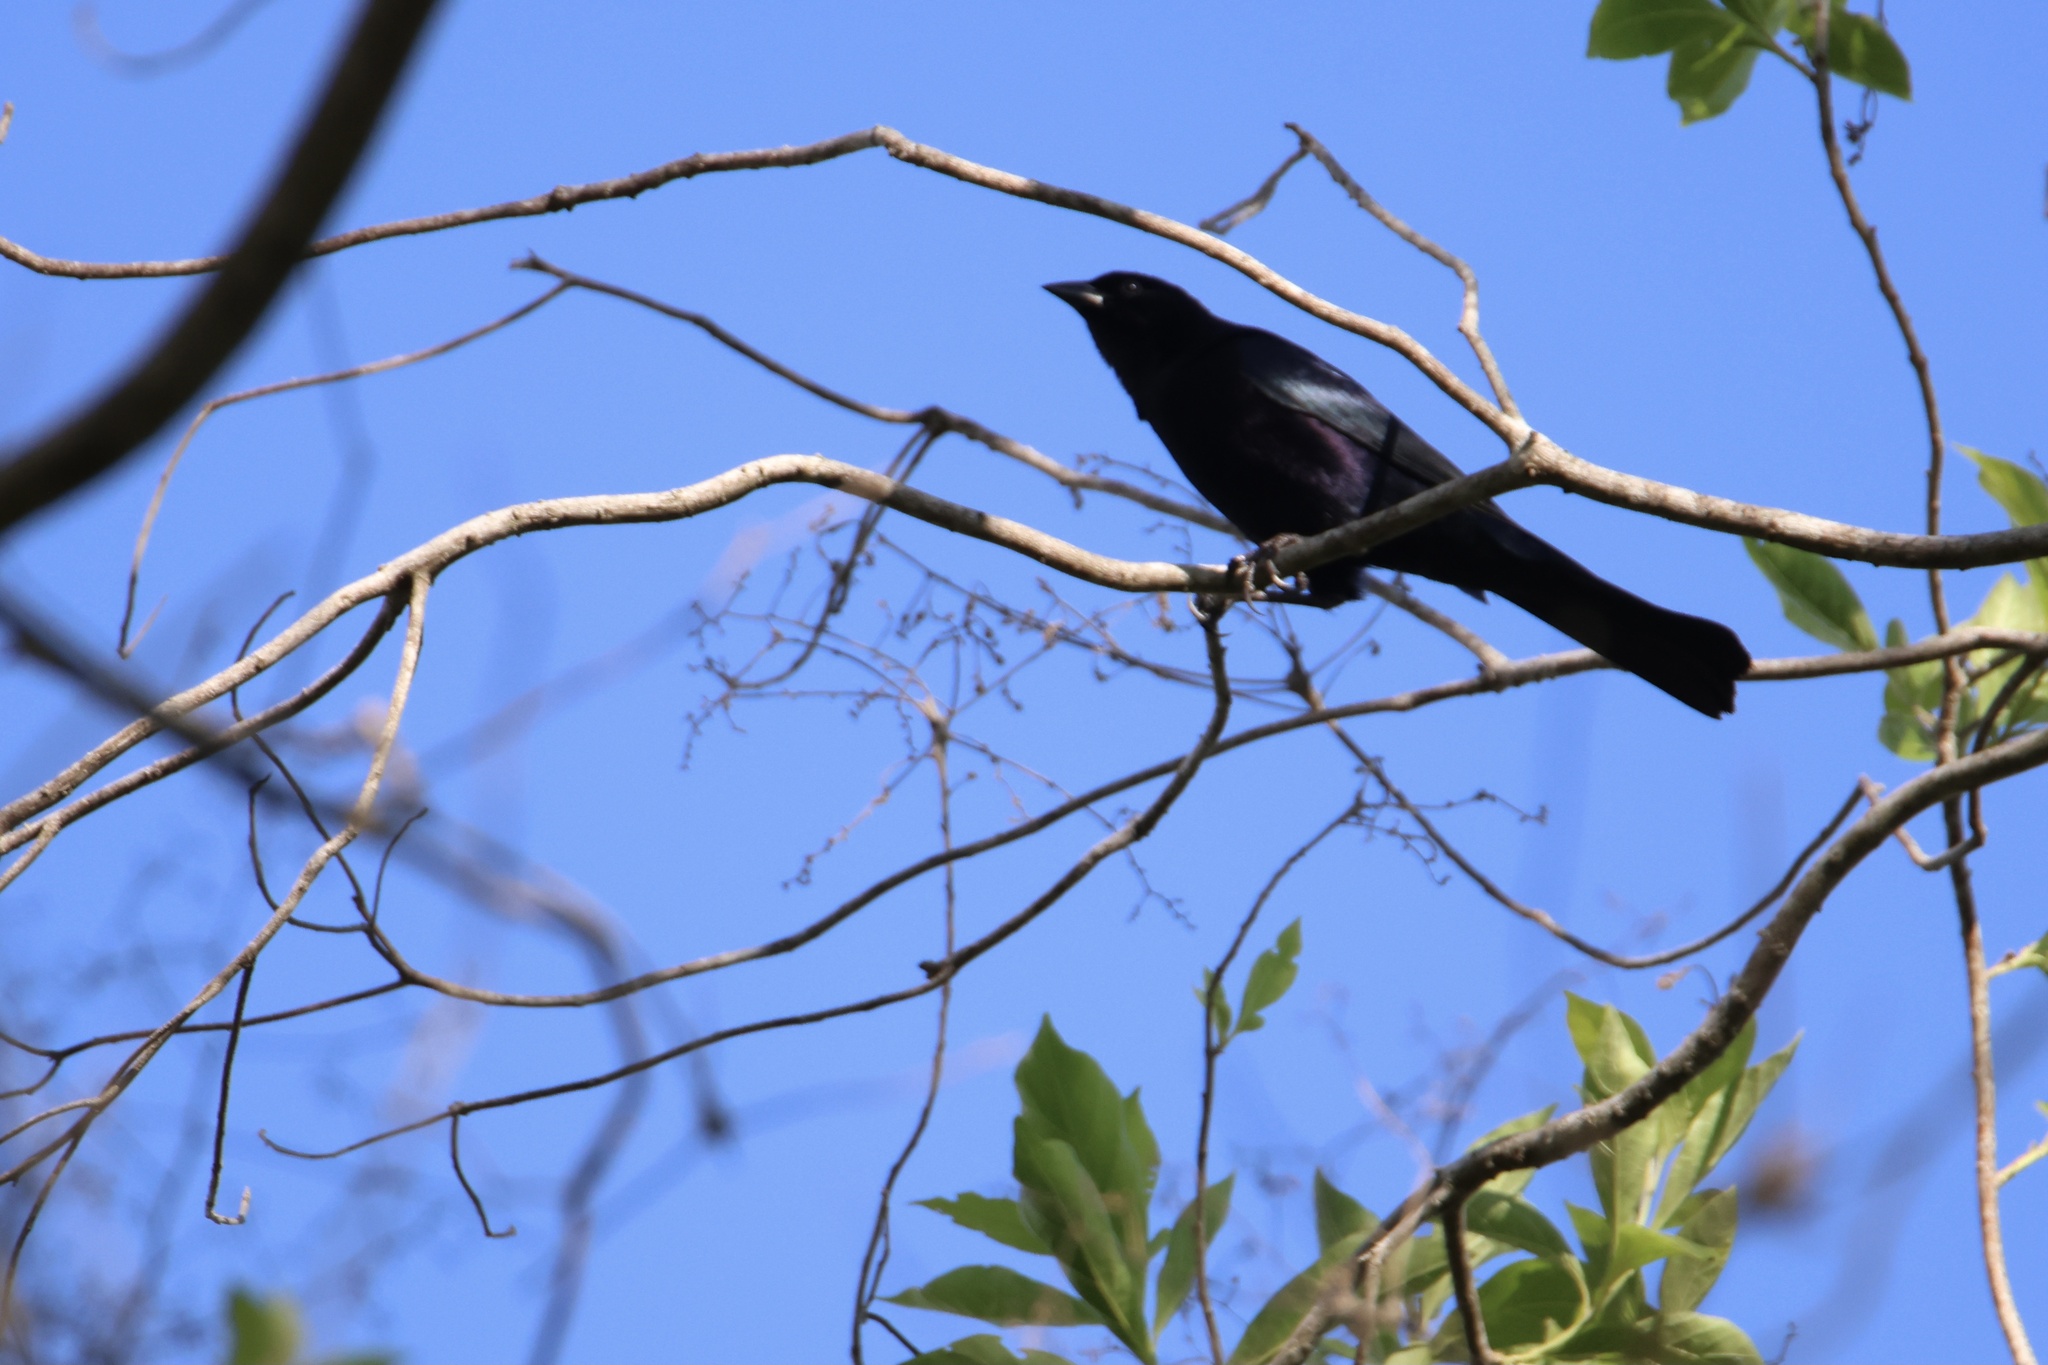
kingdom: Animalia
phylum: Chordata
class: Aves
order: Passeriformes
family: Icteridae
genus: Molothrus
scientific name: Molothrus bonariensis
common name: Shiny cowbird
